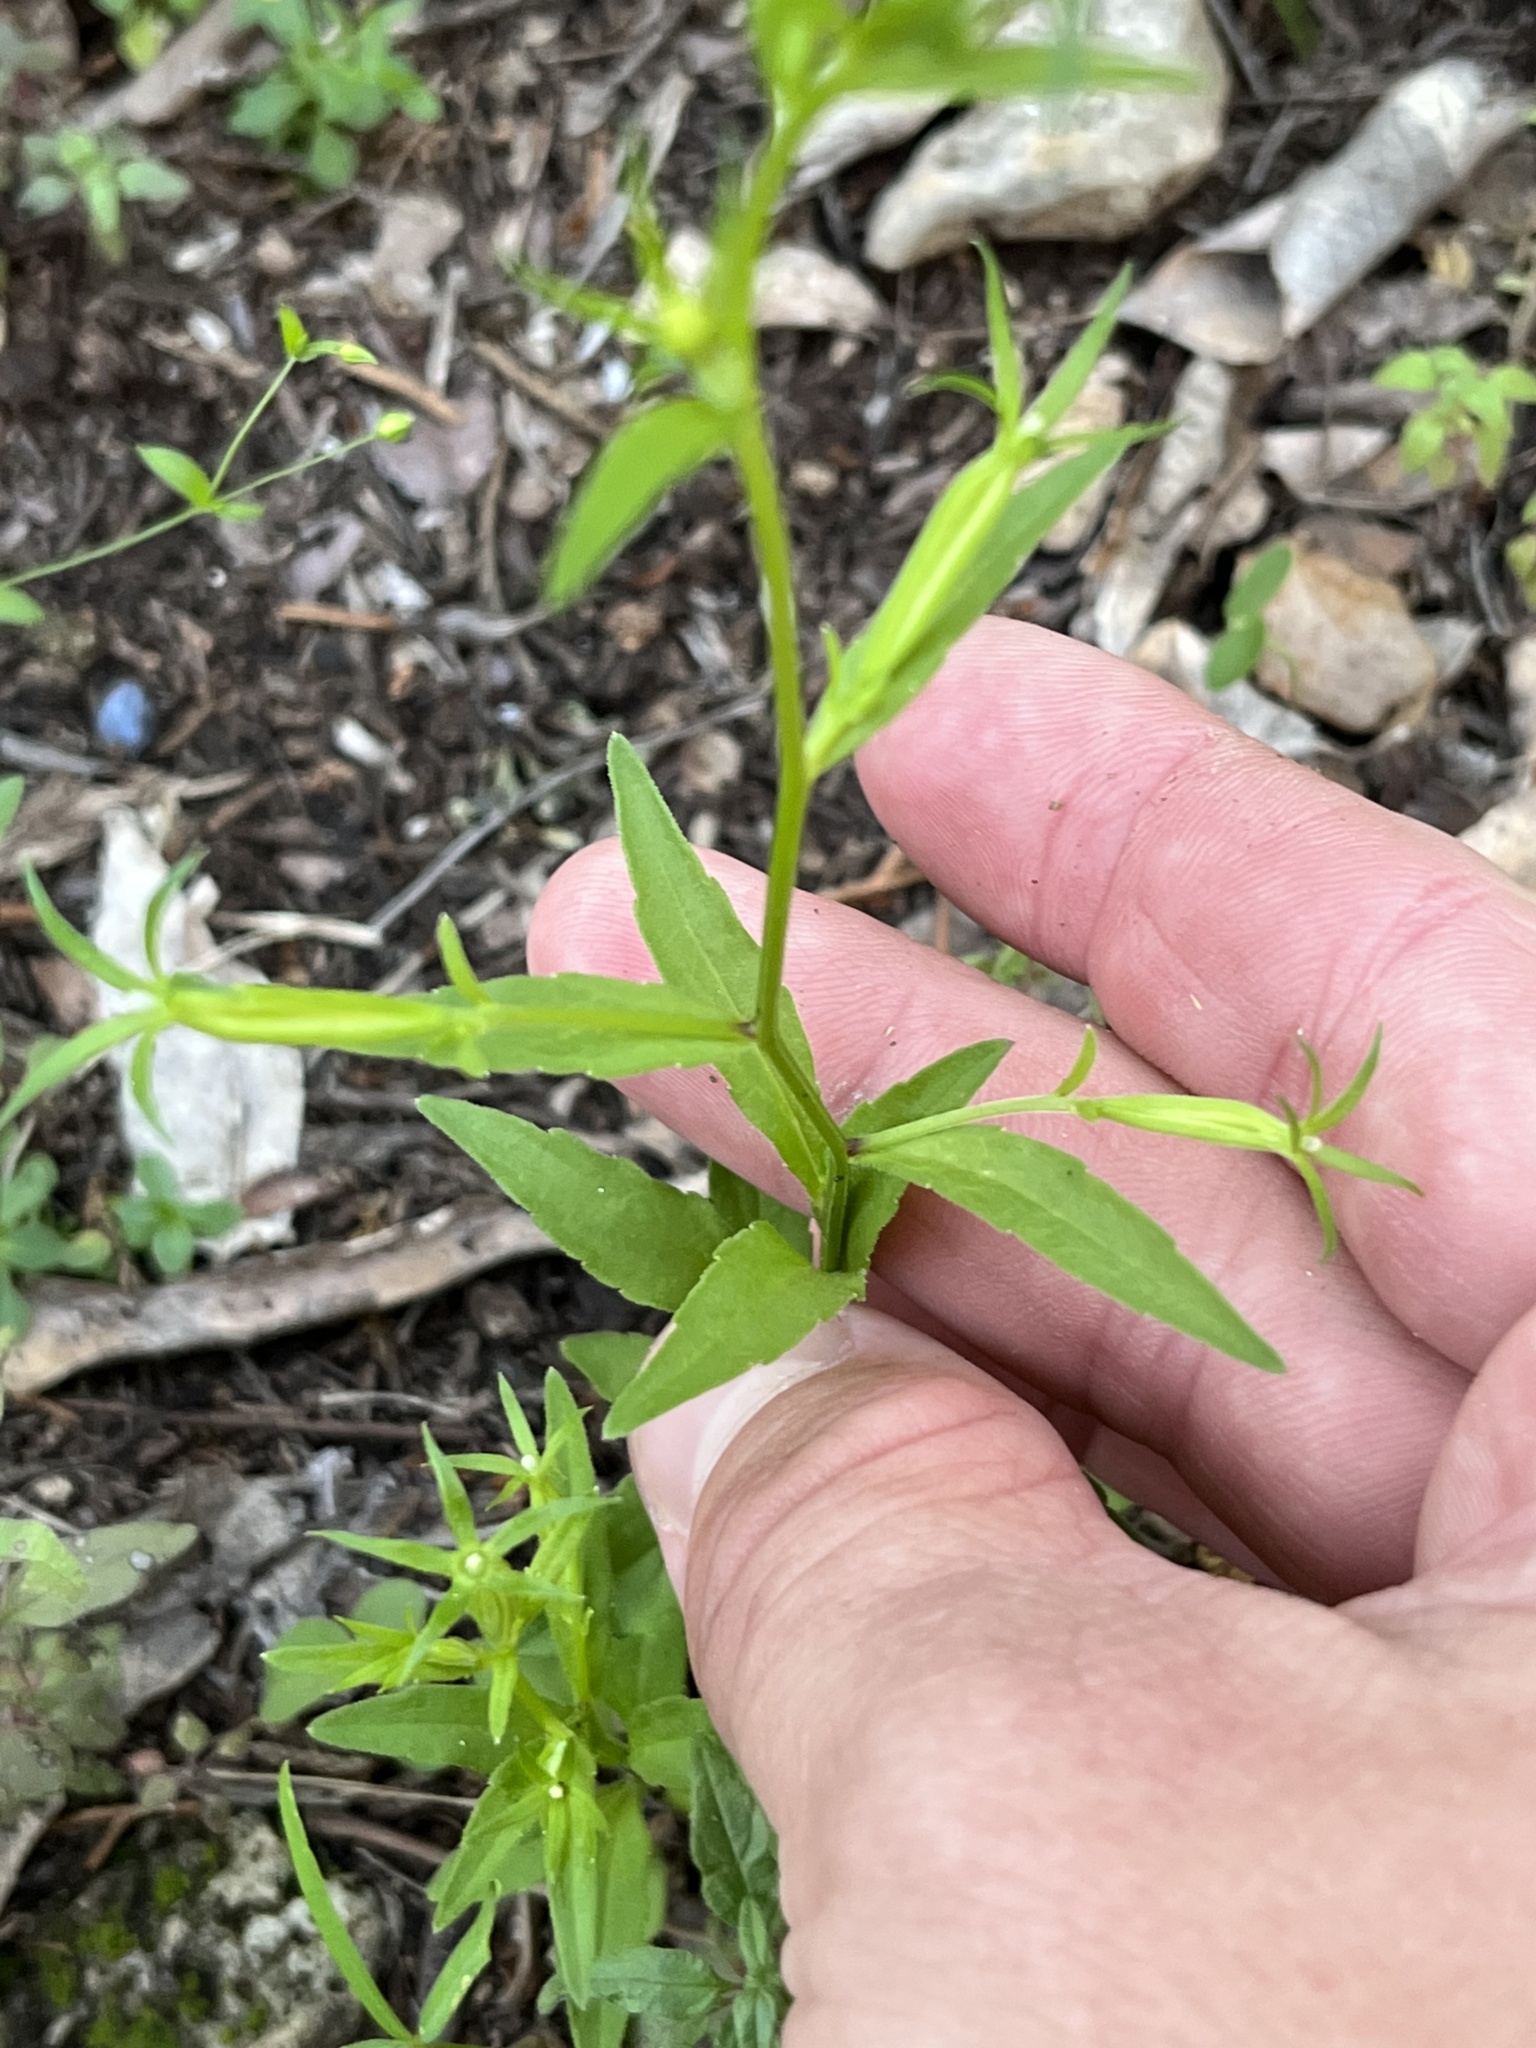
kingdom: Plantae
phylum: Tracheophyta
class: Magnoliopsida
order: Asterales
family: Campanulaceae
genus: Triodanis
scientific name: Triodanis coloradoensis
